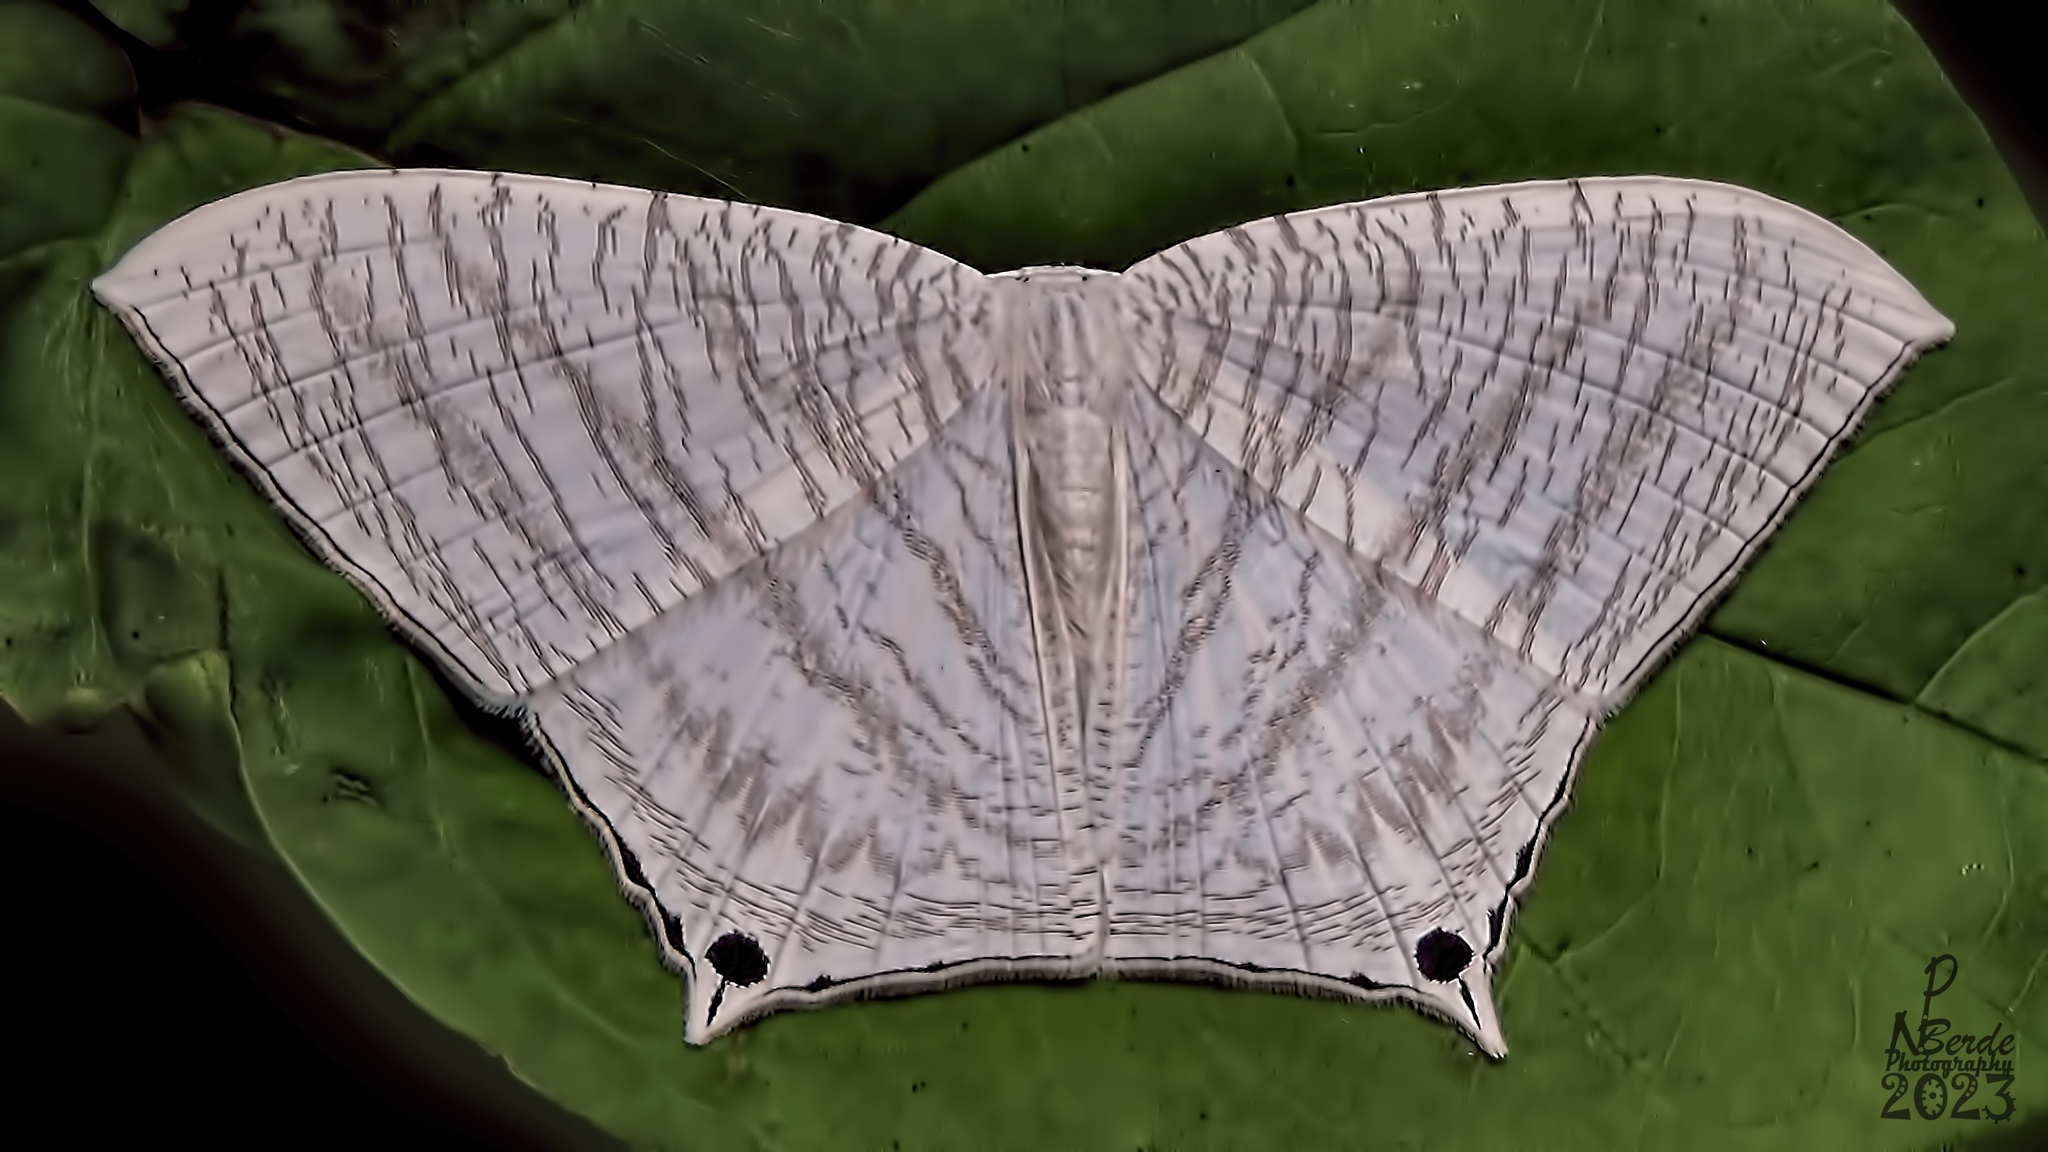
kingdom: Animalia
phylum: Arthropoda
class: Insecta
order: Lepidoptera
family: Uraniidae
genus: Micronia
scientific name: Micronia aculeata
